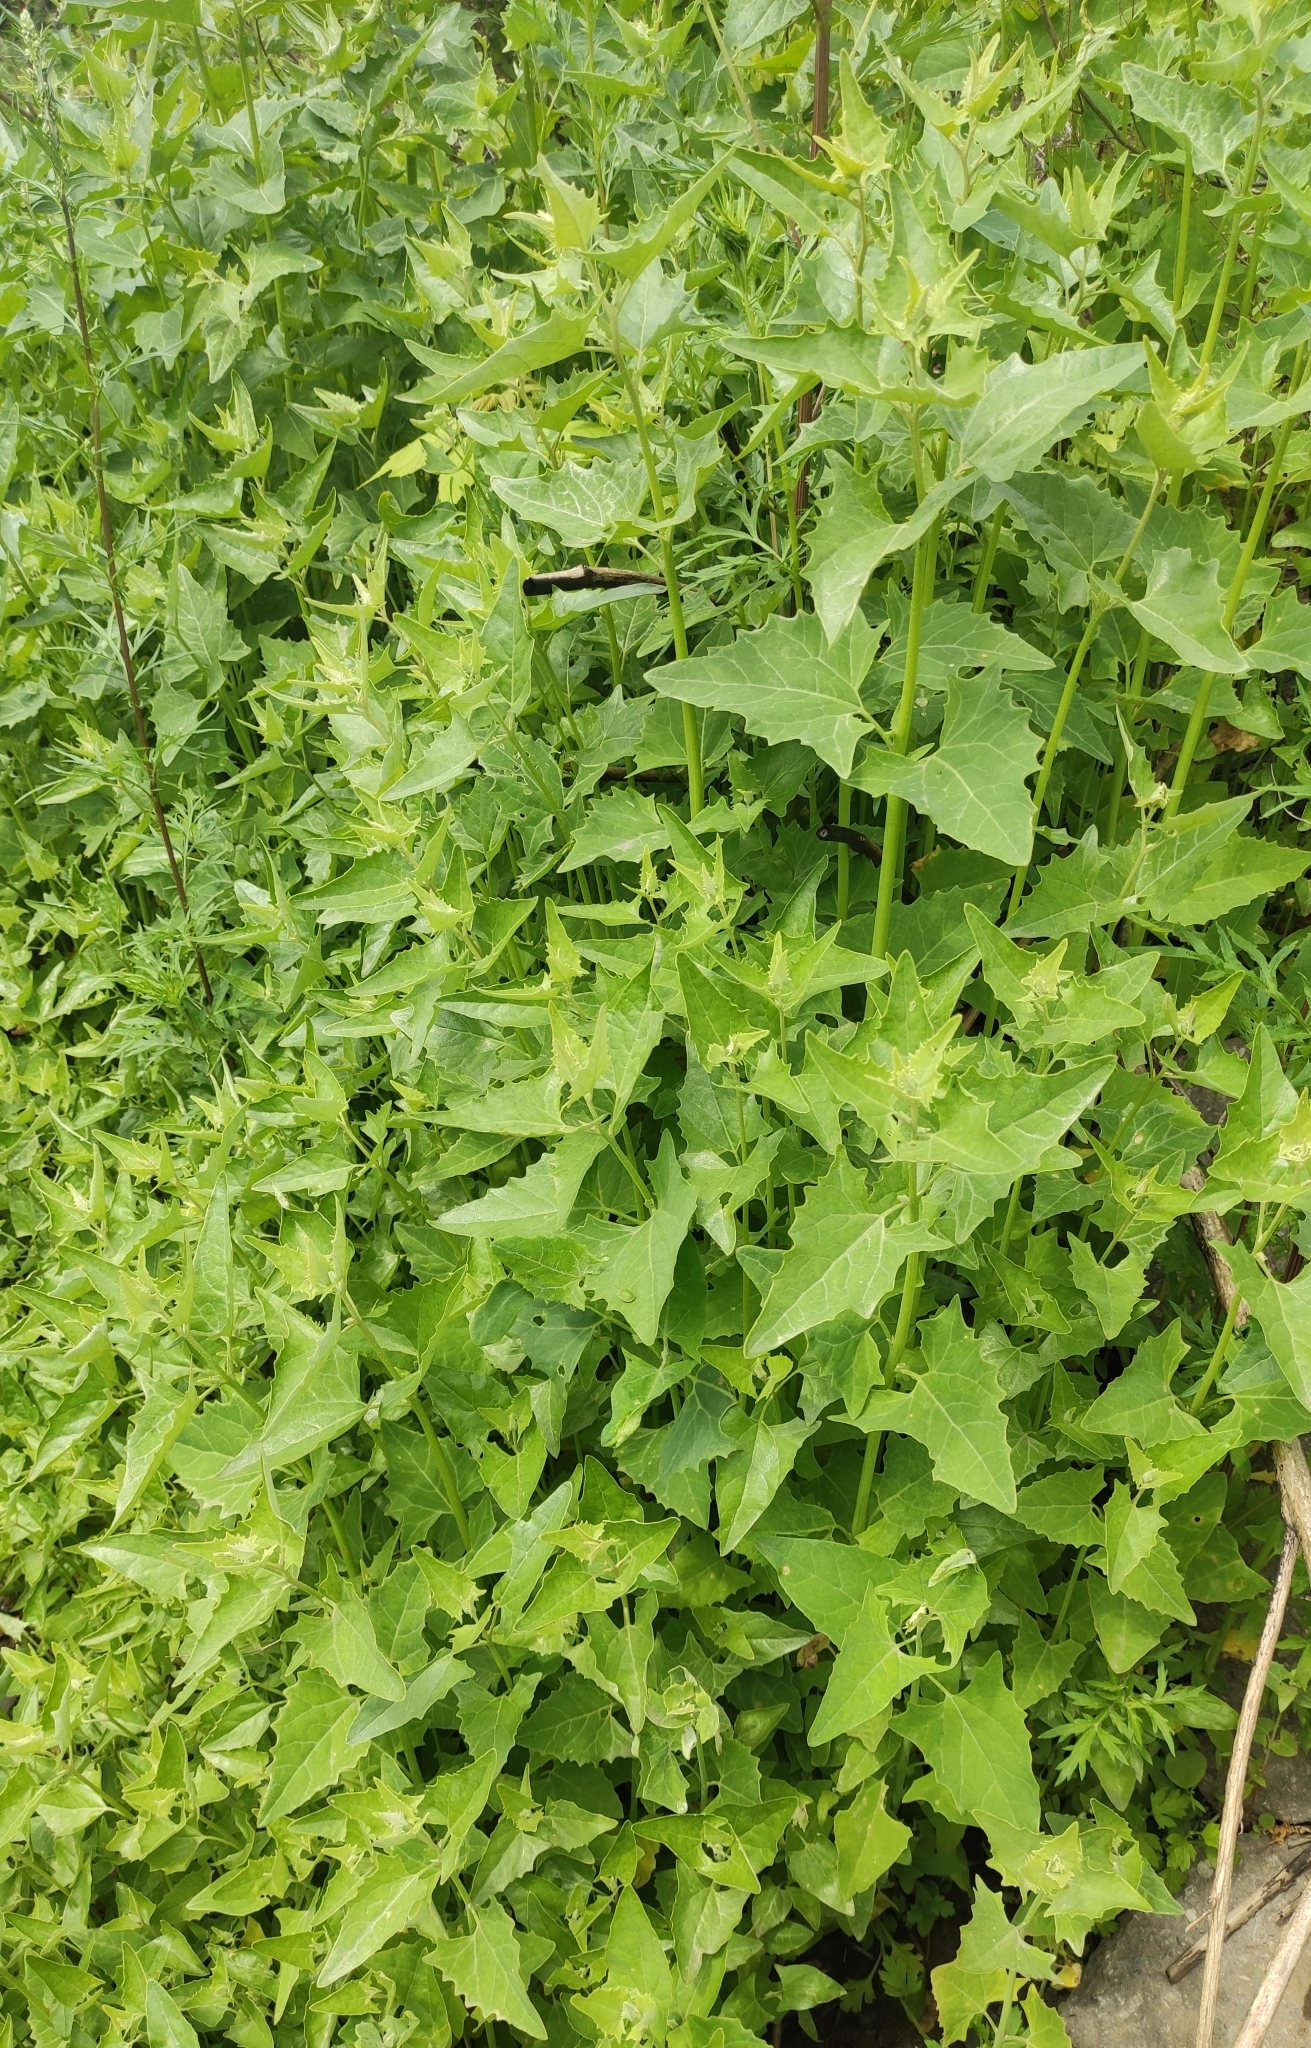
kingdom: Plantae
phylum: Tracheophyta
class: Magnoliopsida
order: Caryophyllales
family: Amaranthaceae
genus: Atriplex
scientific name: Atriplex sagittata
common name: Purple orache
